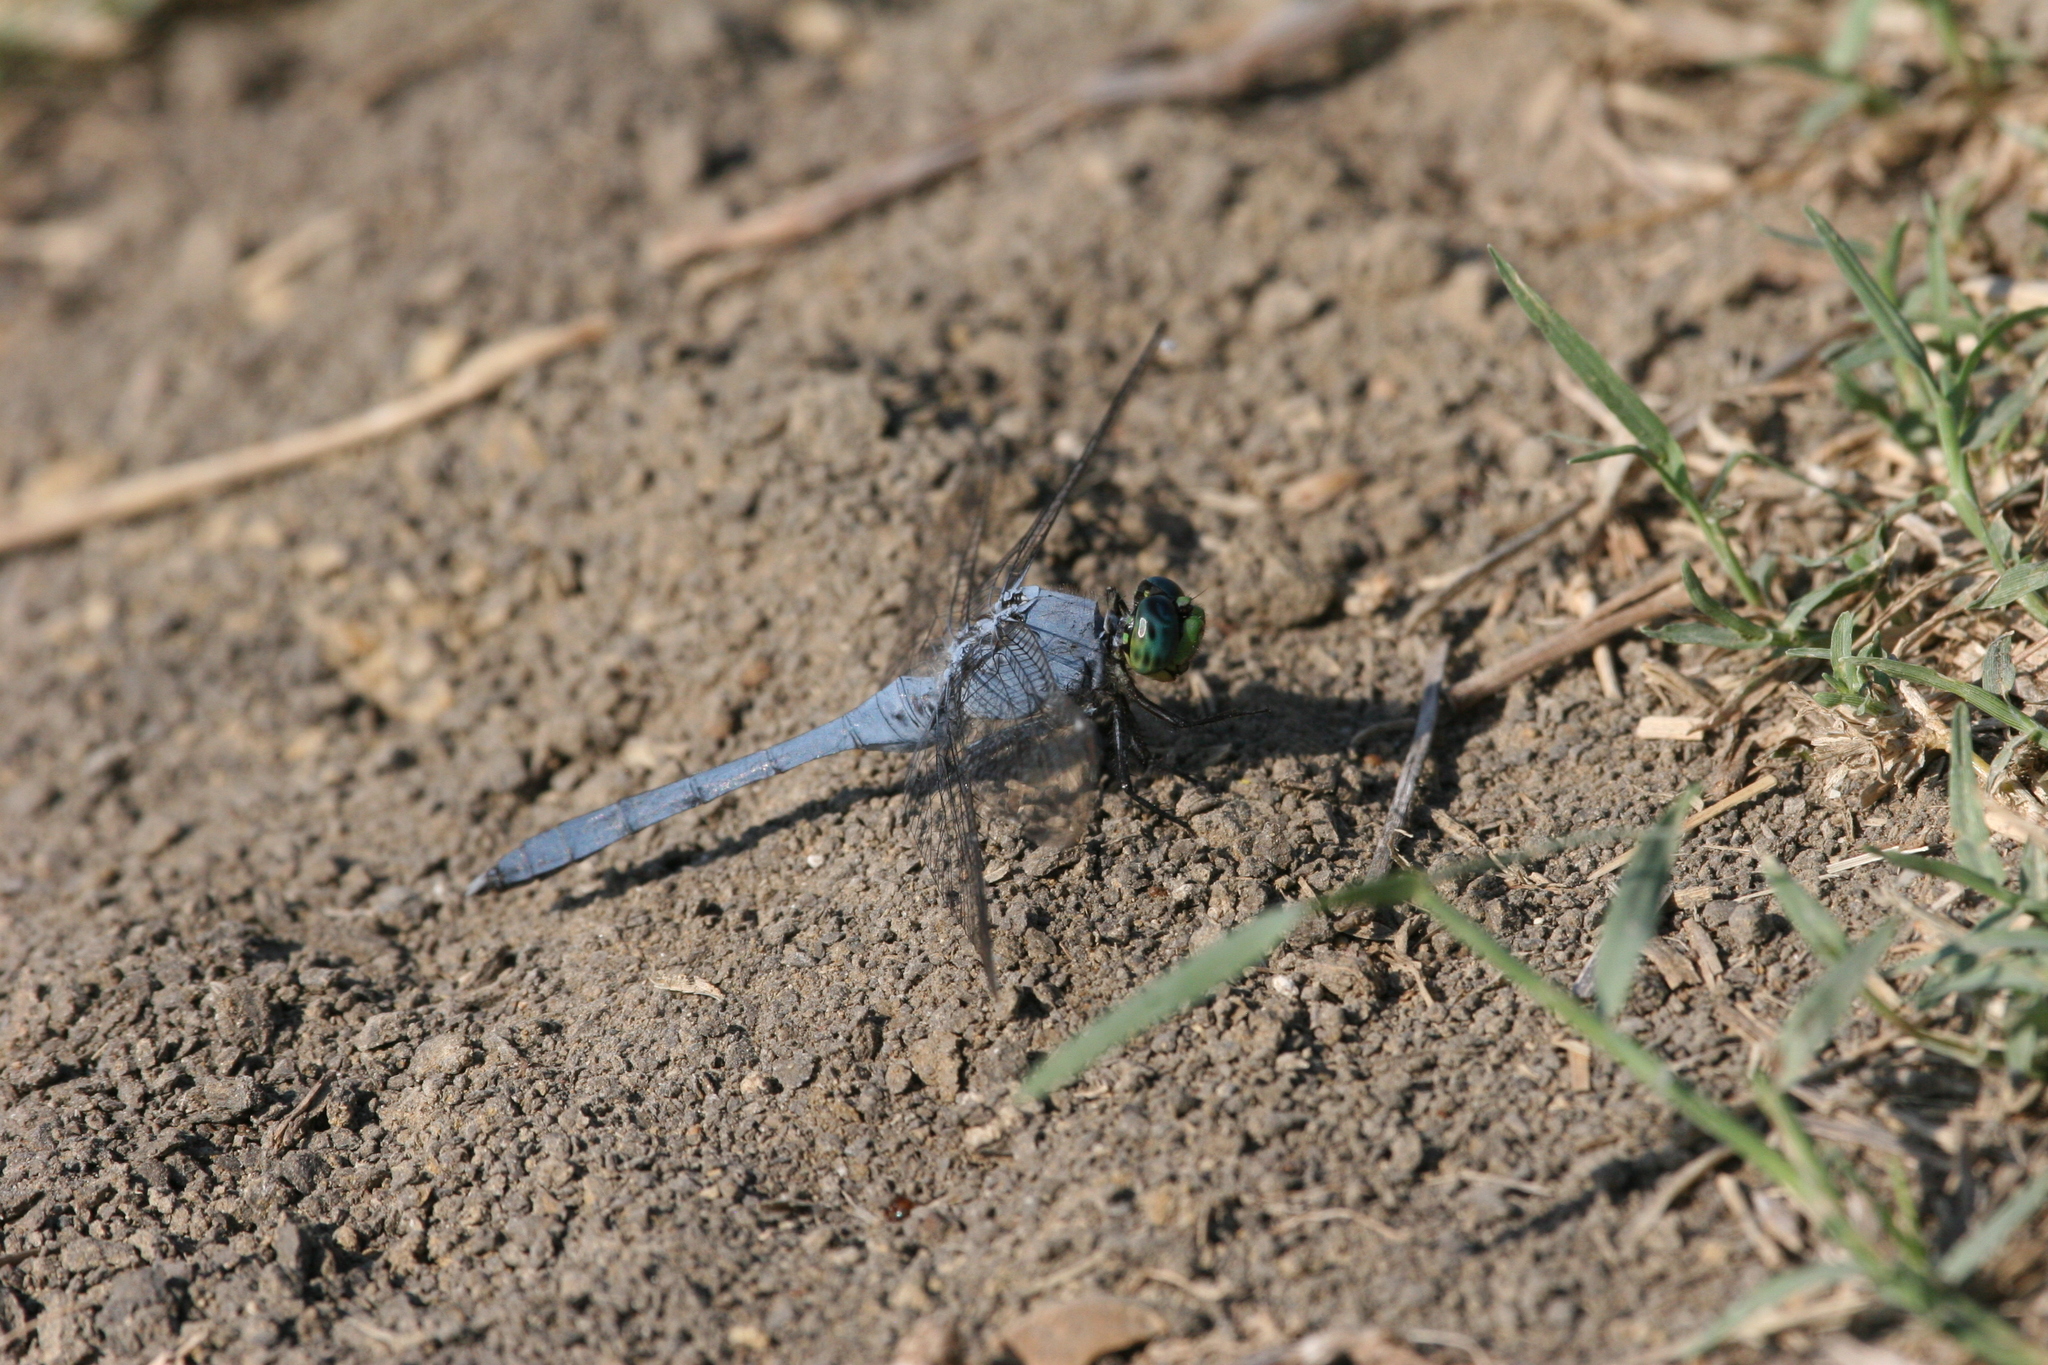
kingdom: Animalia
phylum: Arthropoda
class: Insecta
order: Odonata
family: Libellulidae
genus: Erythemis
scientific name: Erythemis simplicicollis
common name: Eastern pondhawk
